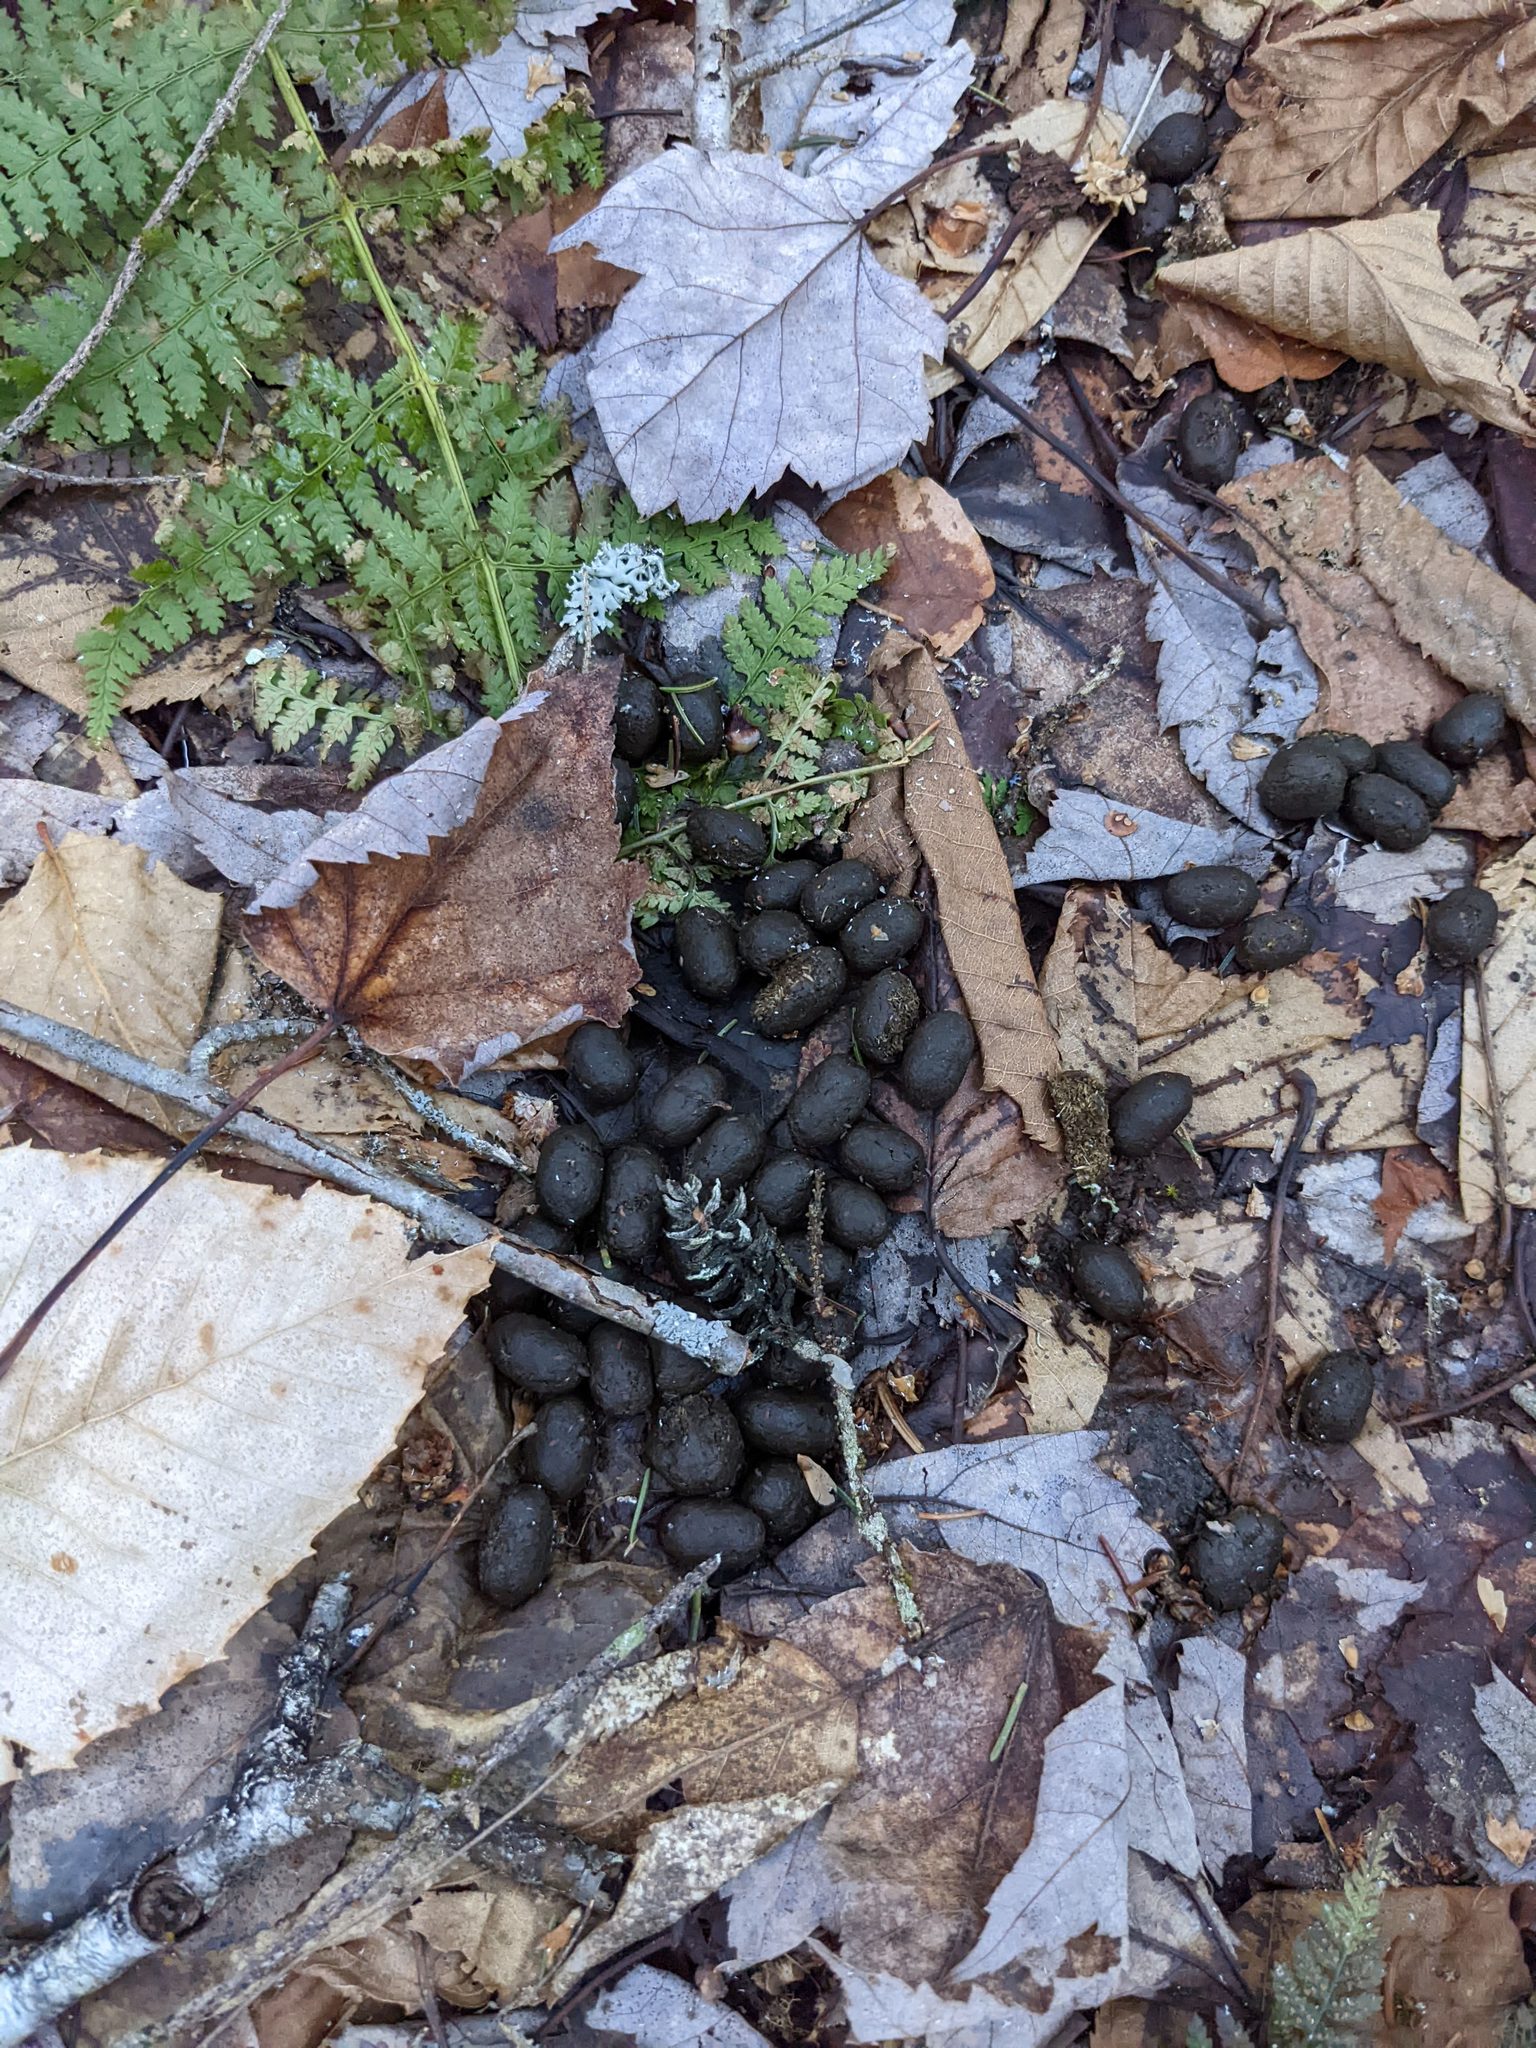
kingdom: Animalia
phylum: Chordata
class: Mammalia
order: Artiodactyla
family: Cervidae
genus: Odocoileus
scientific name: Odocoileus virginianus
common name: White-tailed deer
